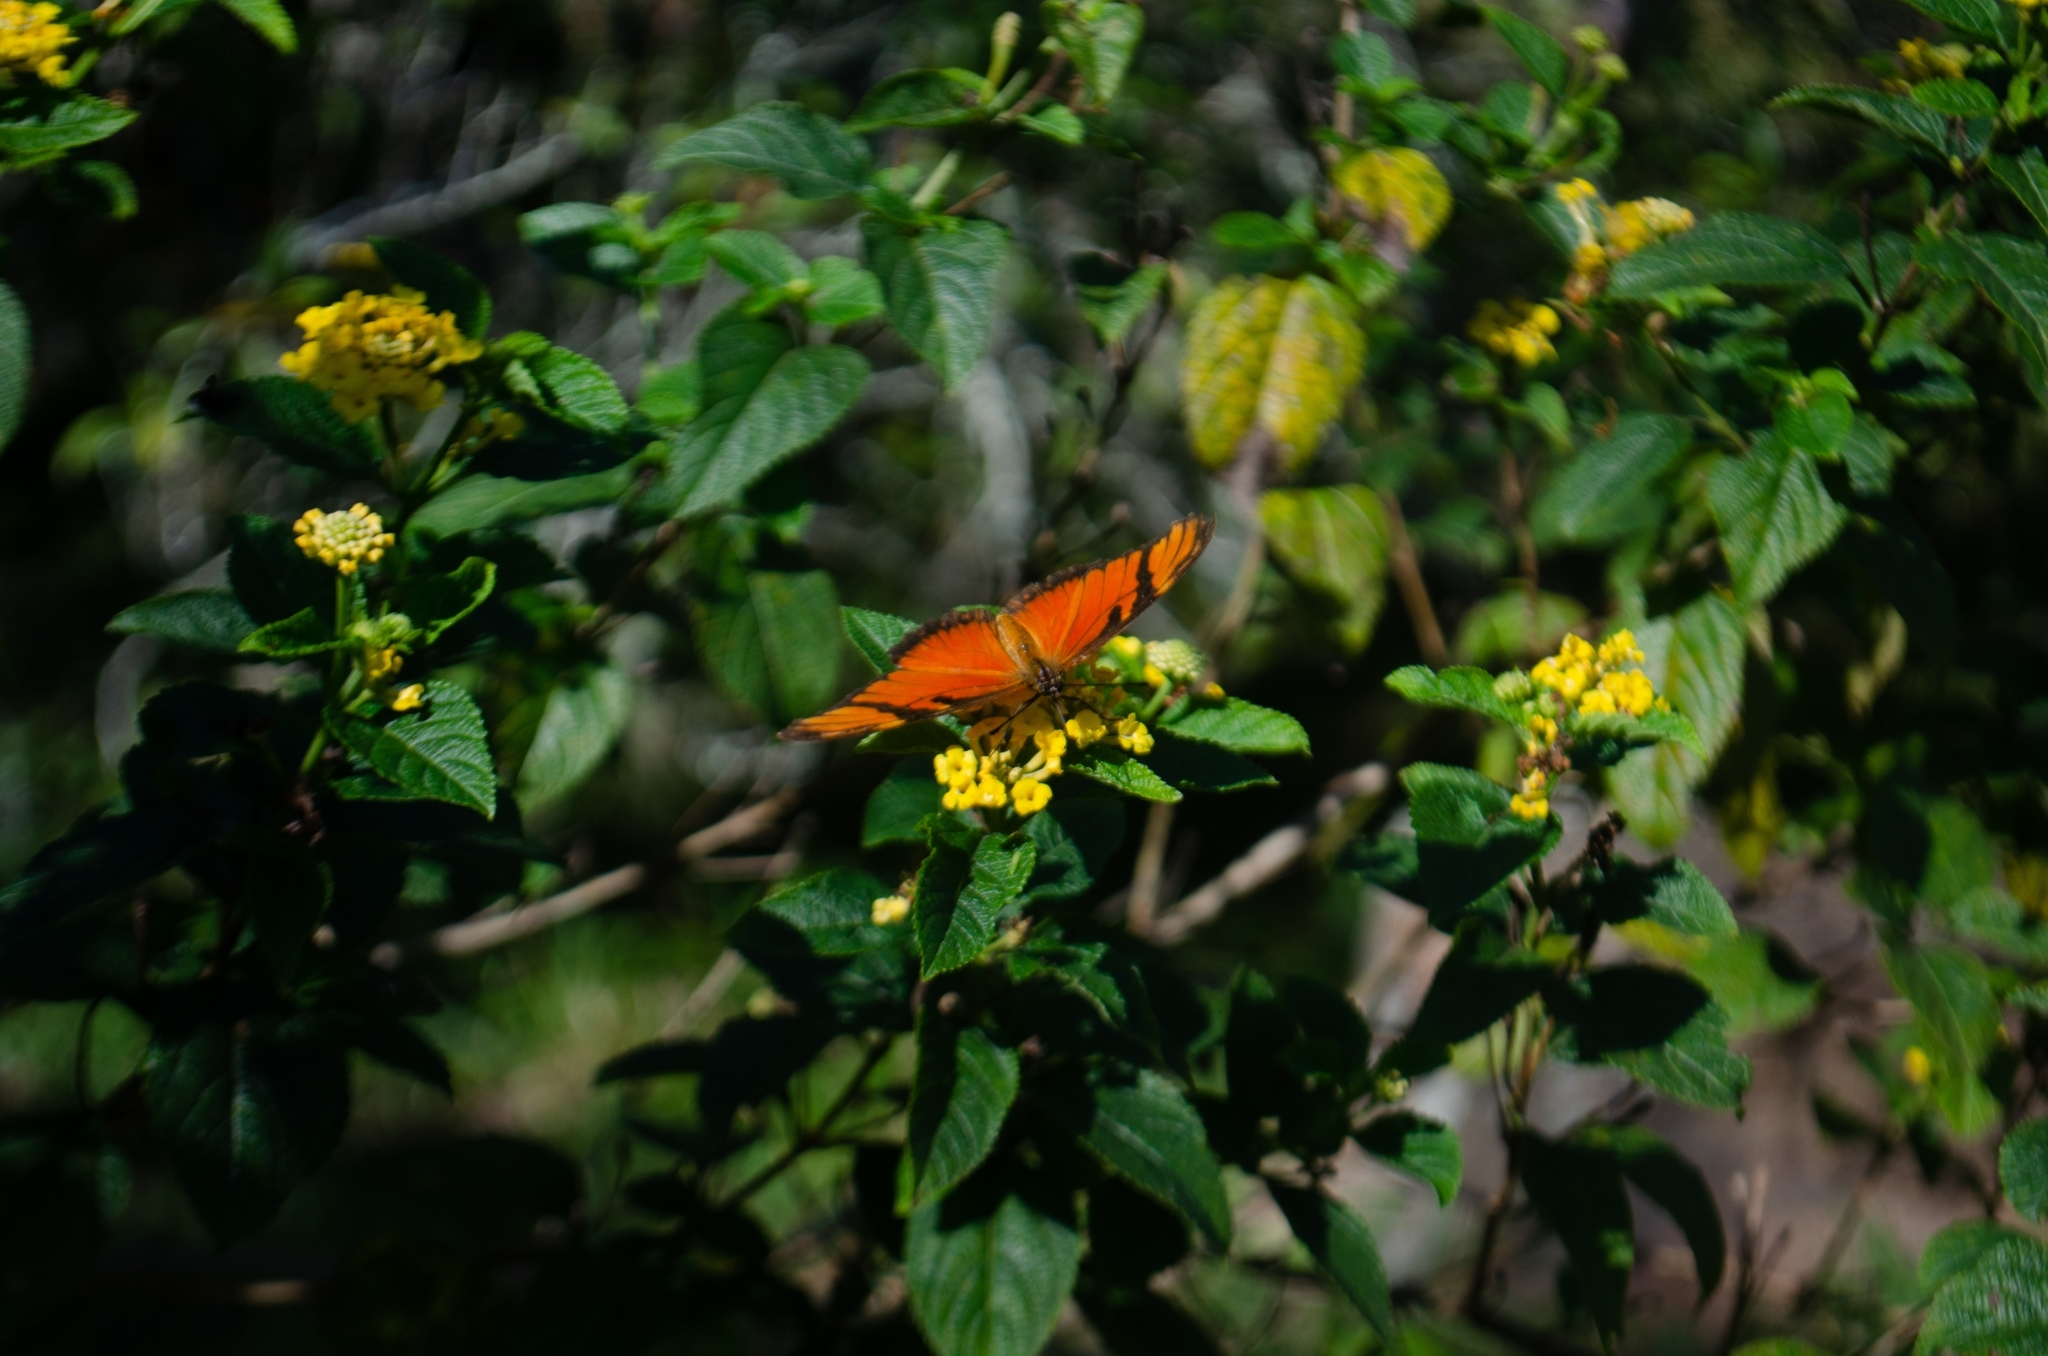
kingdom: Animalia
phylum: Arthropoda
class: Insecta
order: Lepidoptera
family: Nymphalidae
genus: Dione
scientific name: Dione juno
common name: Juno silverspot
